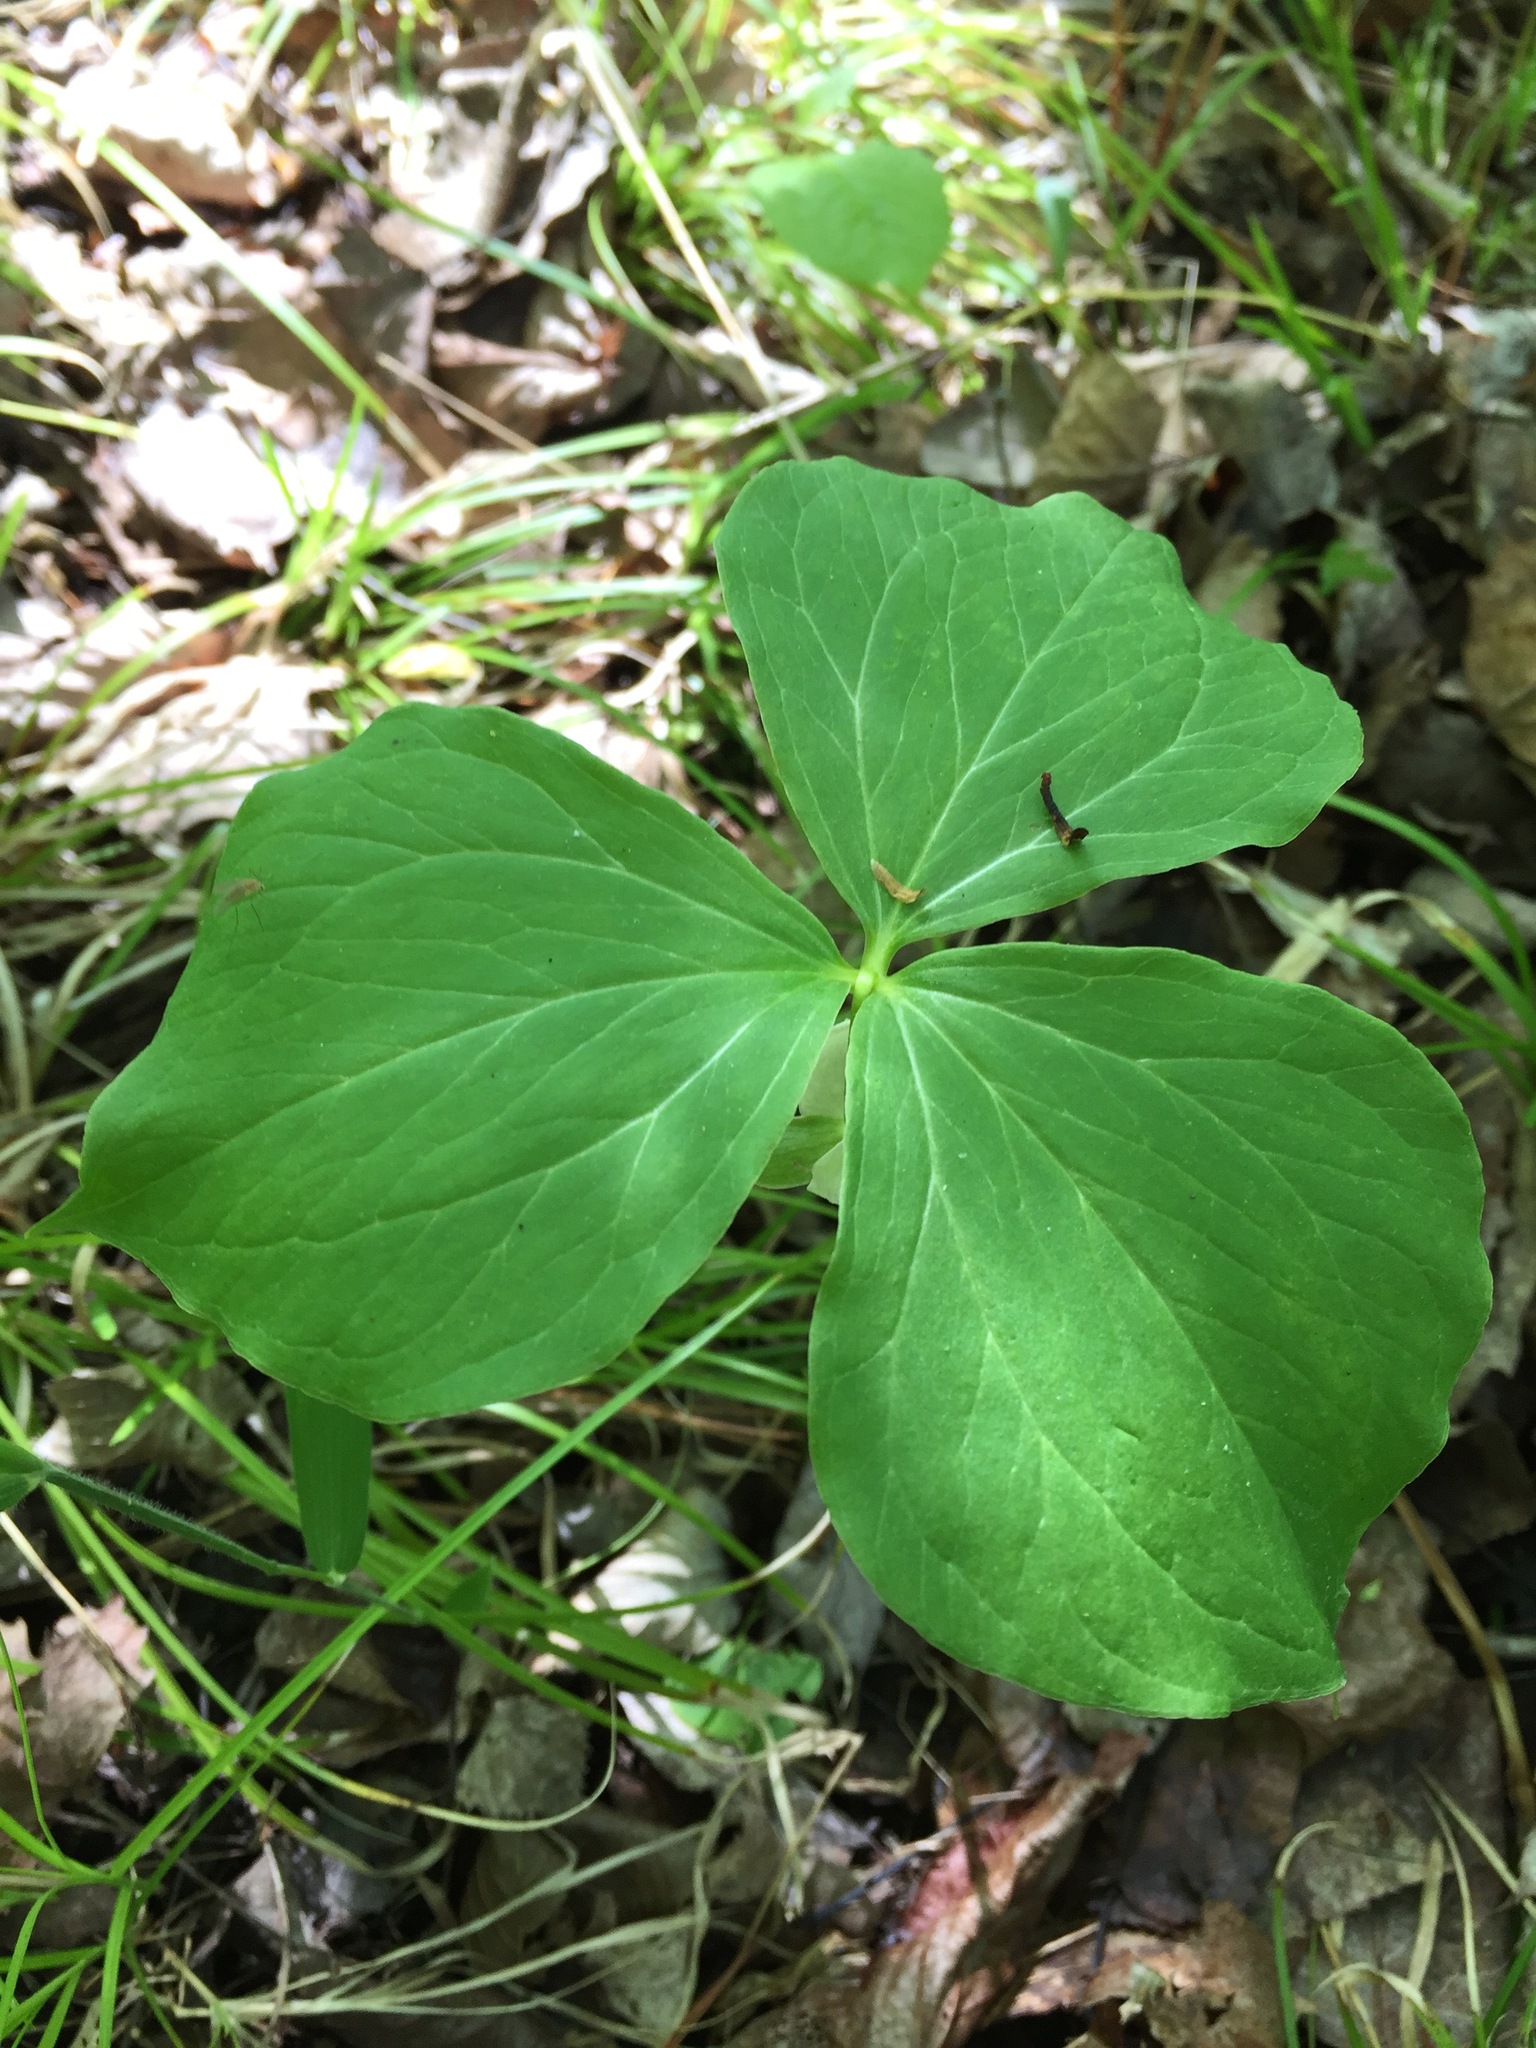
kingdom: Plantae
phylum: Tracheophyta
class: Liliopsida
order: Liliales
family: Melanthiaceae
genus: Trillium
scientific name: Trillium cernuum
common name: Nodding trillium
